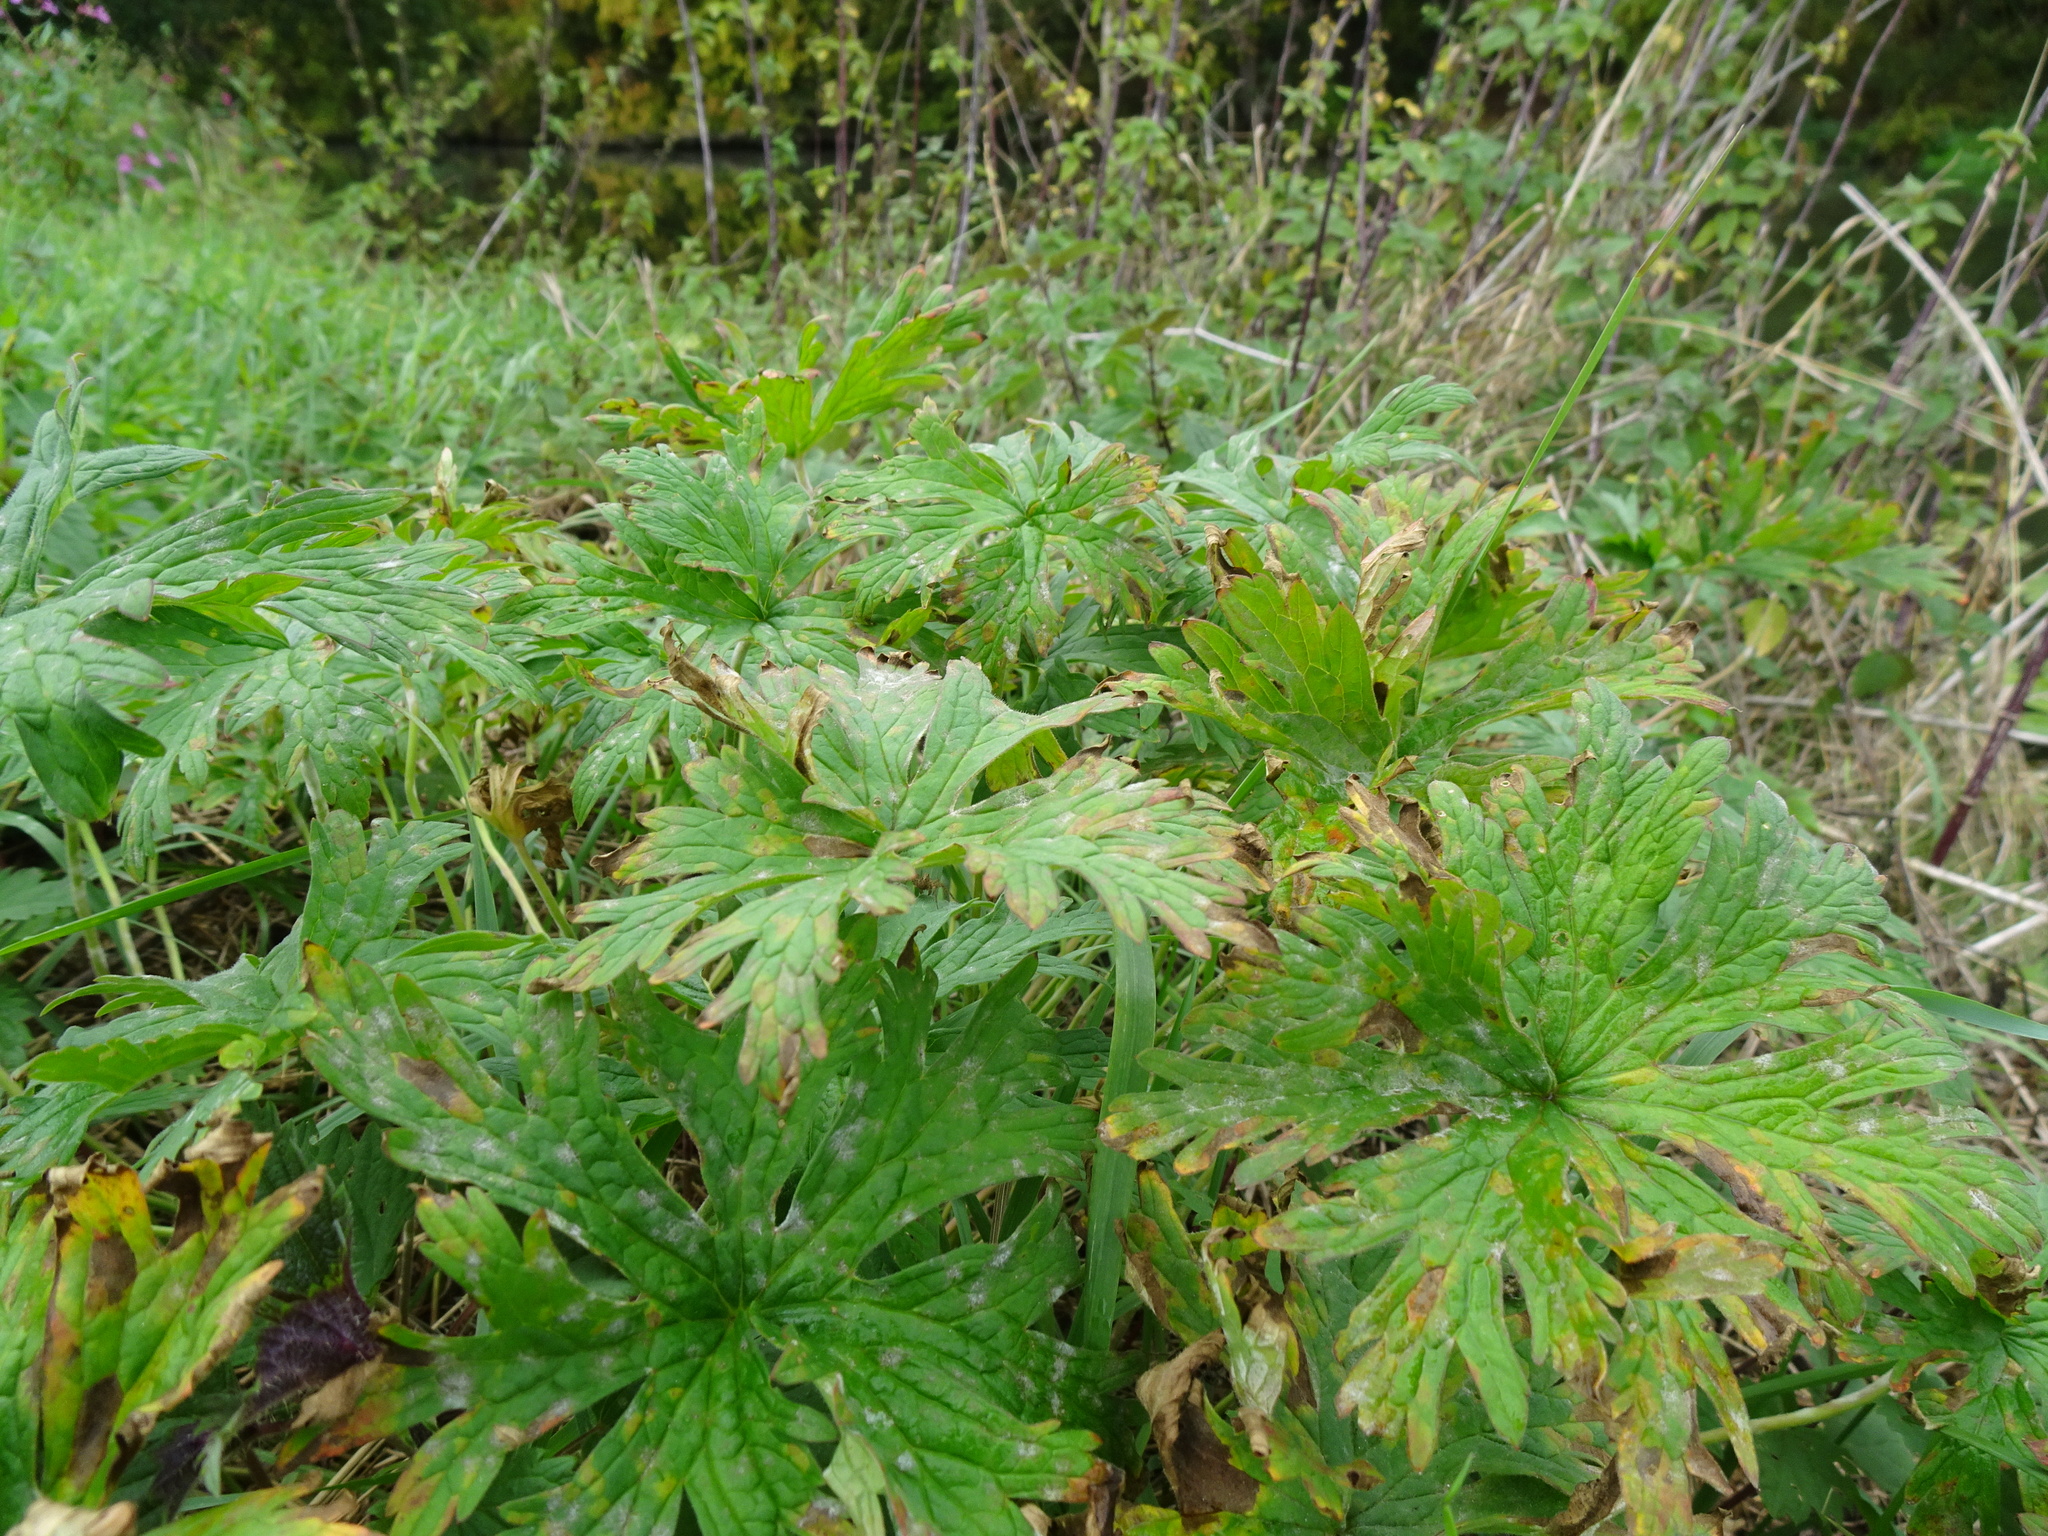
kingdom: Plantae
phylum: Tracheophyta
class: Magnoliopsida
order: Geraniales
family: Geraniaceae
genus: Geranium
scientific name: Geranium pratense
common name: Meadow crane's-bill
